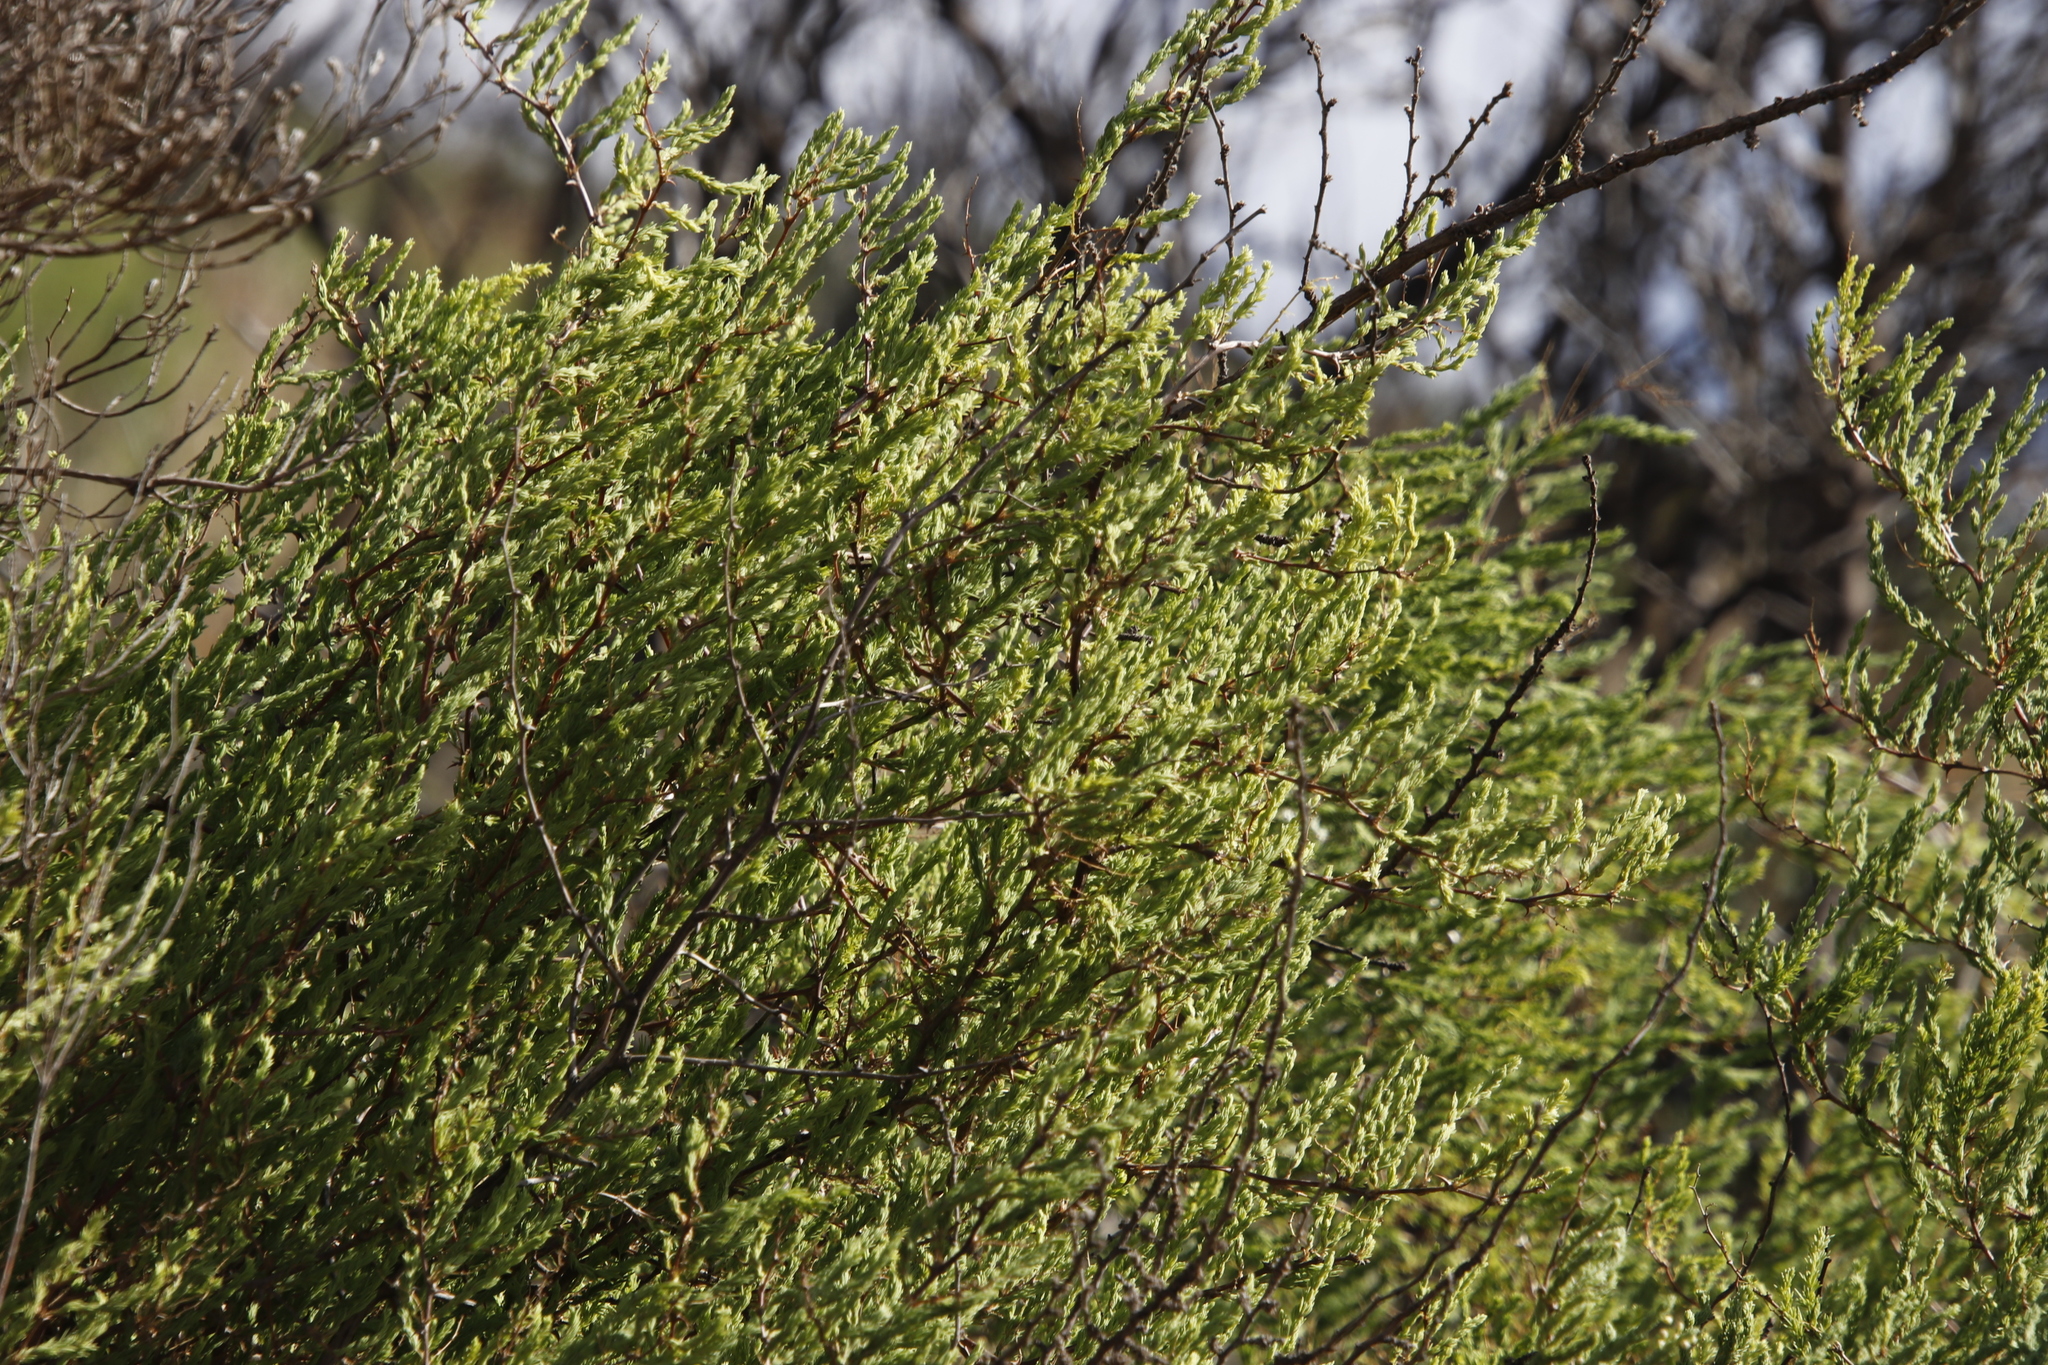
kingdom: Plantae
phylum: Tracheophyta
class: Liliopsida
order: Asparagales
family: Asparagaceae
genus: Asparagus
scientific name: Asparagus rubicundus
